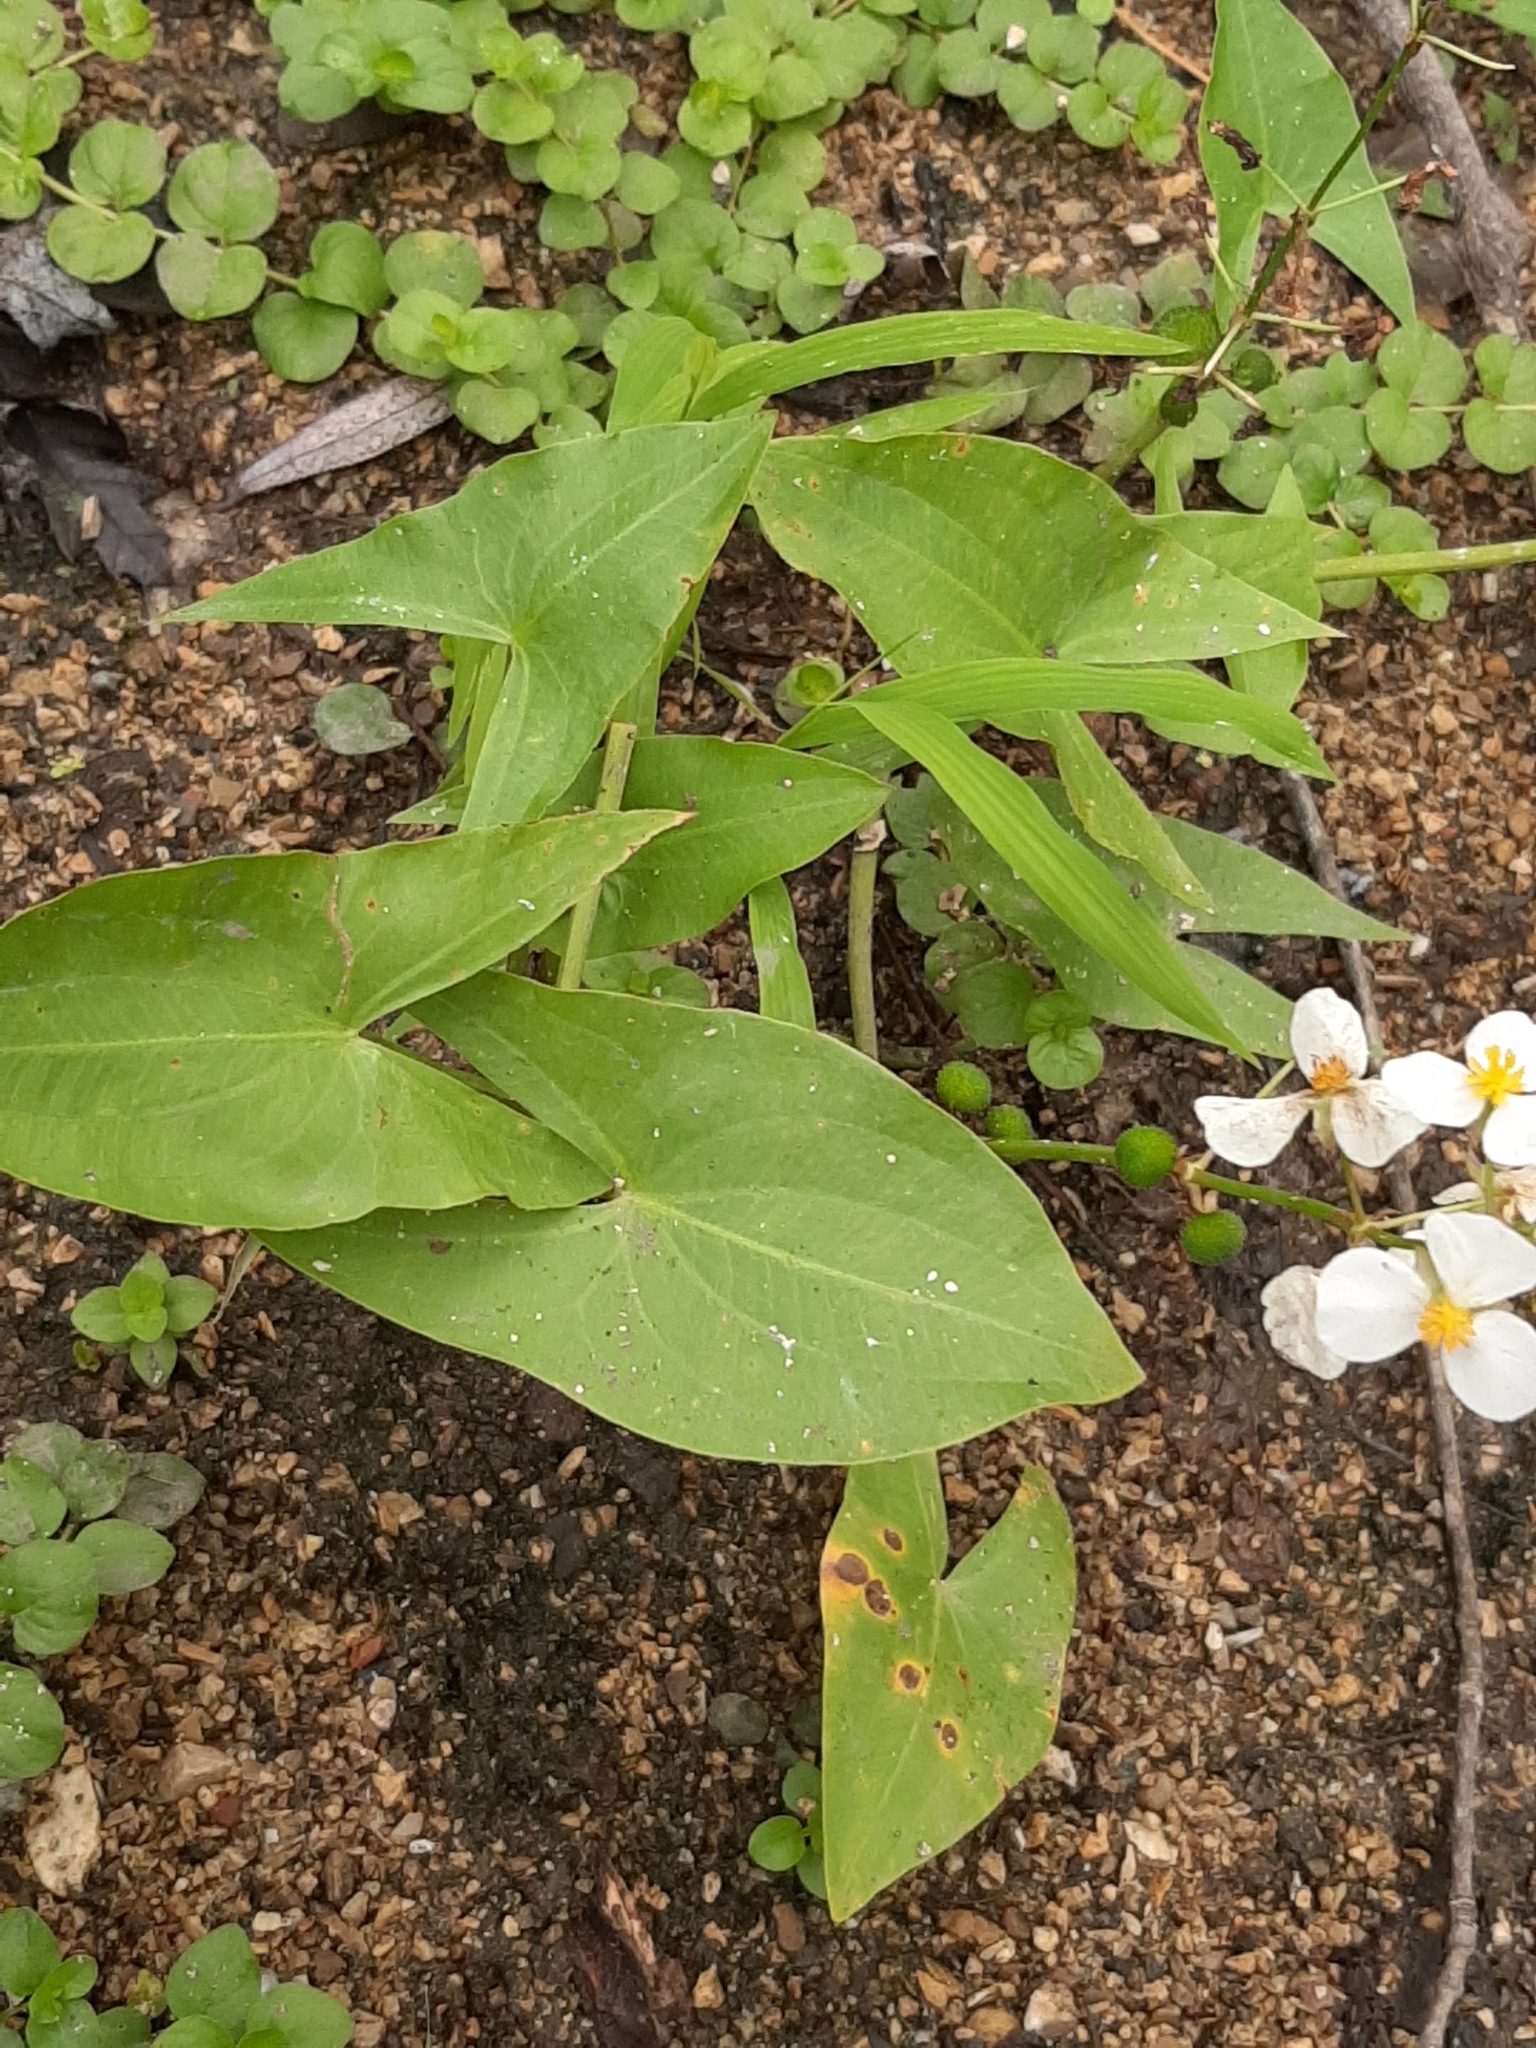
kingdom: Plantae
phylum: Tracheophyta
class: Liliopsida
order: Alismatales
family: Alismataceae
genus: Sagittaria
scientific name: Sagittaria
